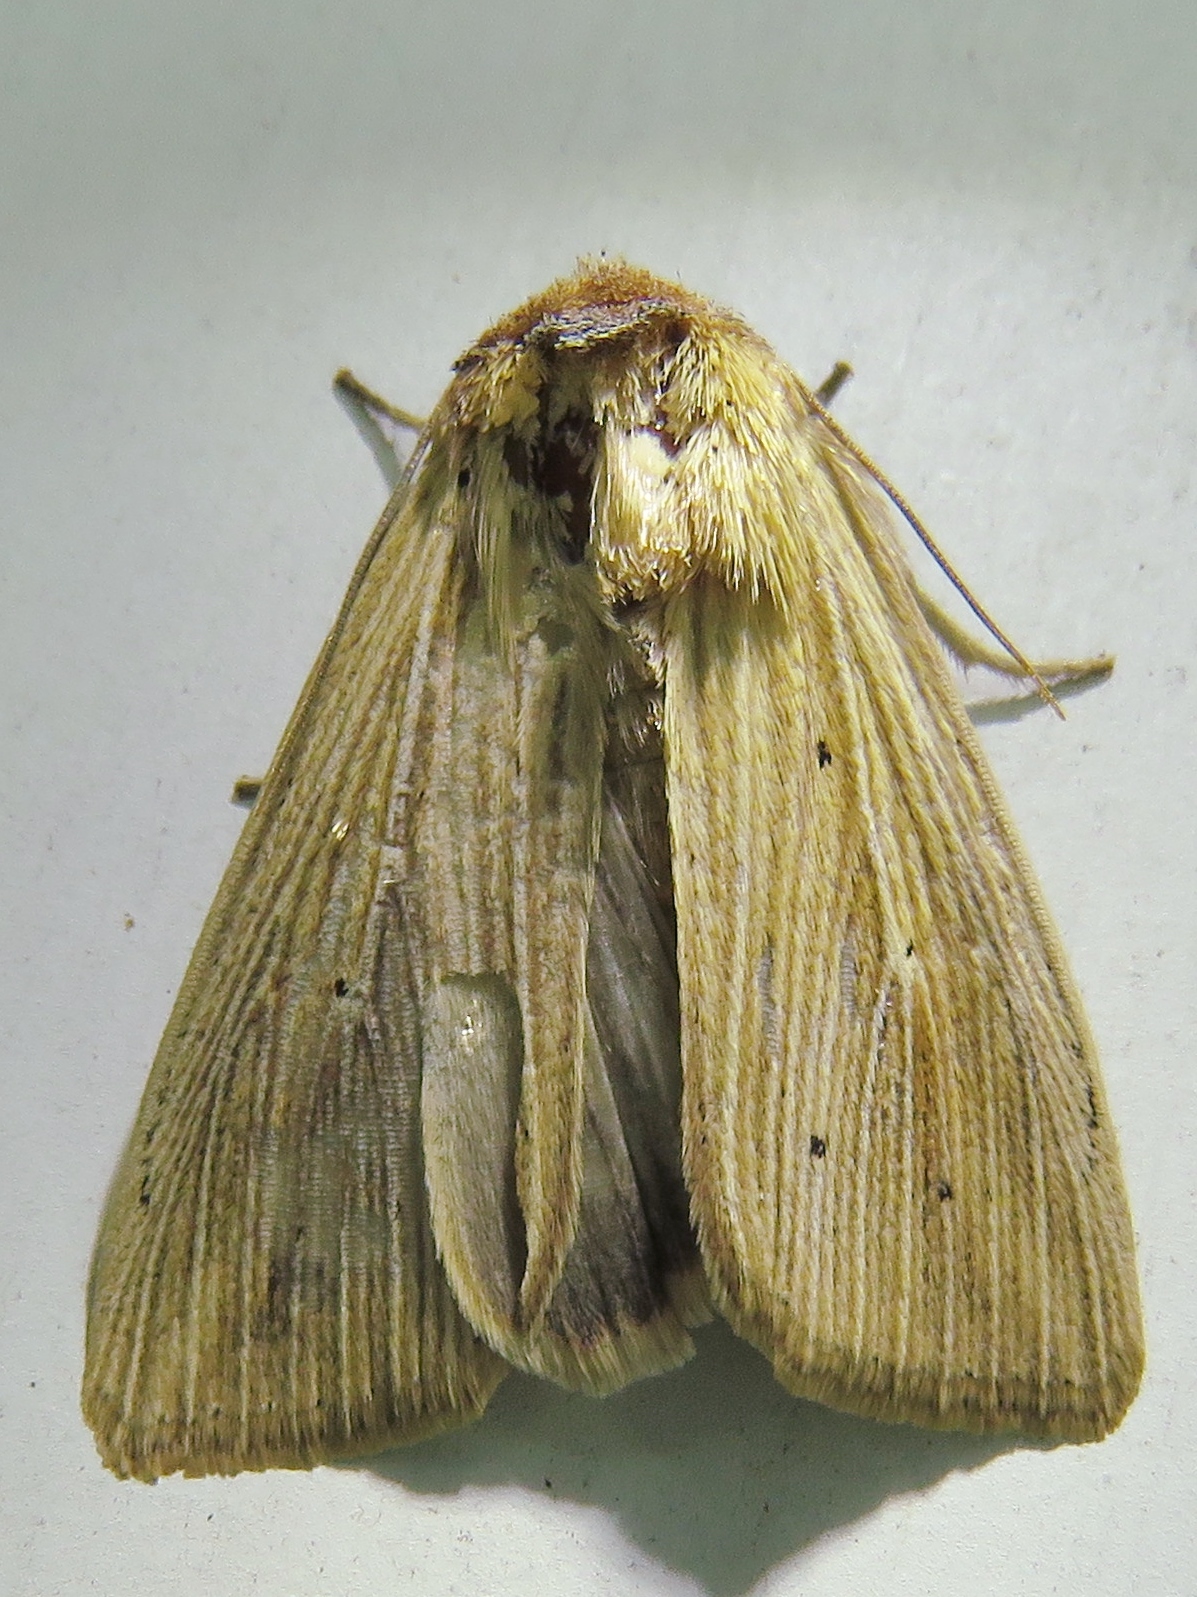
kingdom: Animalia
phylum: Arthropoda
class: Insecta
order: Lepidoptera
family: Noctuidae
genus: Leucania
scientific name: Leucania adjuta
